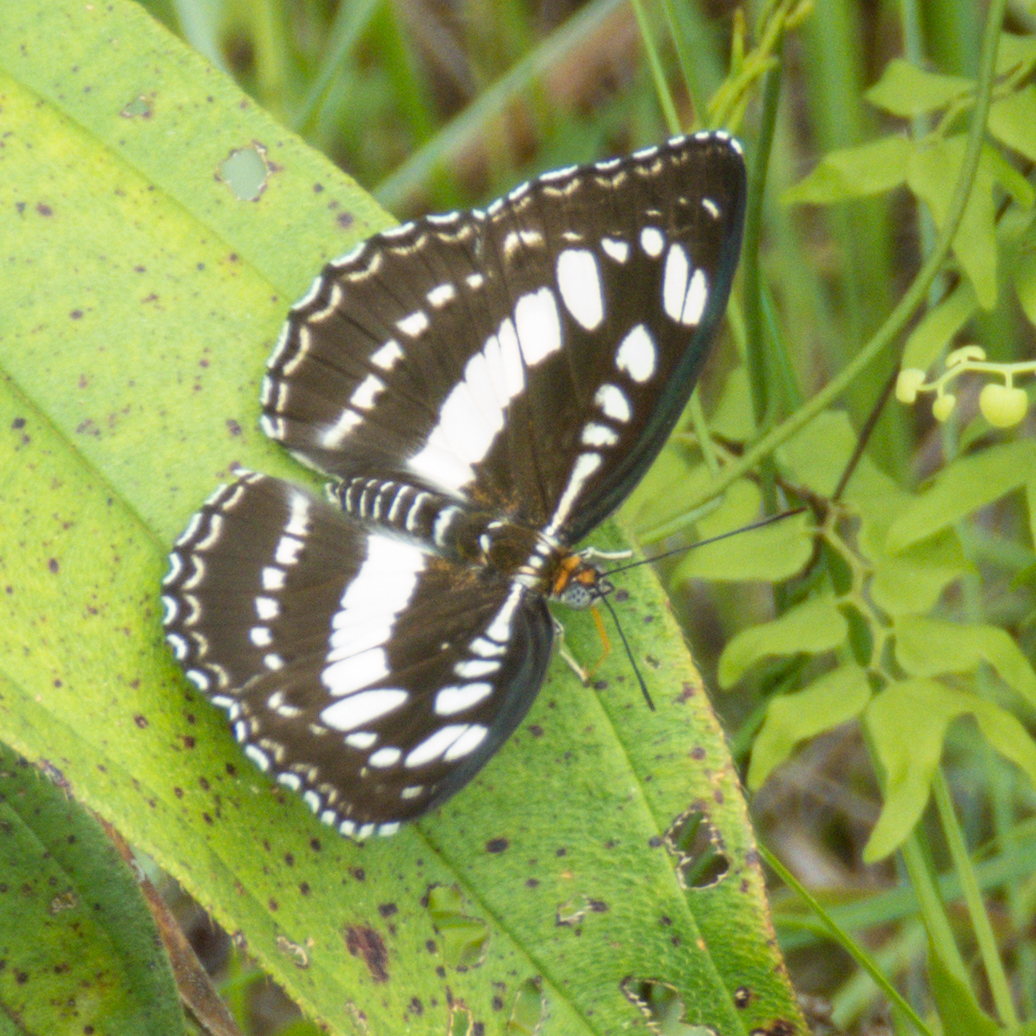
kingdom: Animalia
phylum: Arthropoda
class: Insecta
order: Lepidoptera
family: Nymphalidae
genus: Parathyma
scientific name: Parathyma perius
